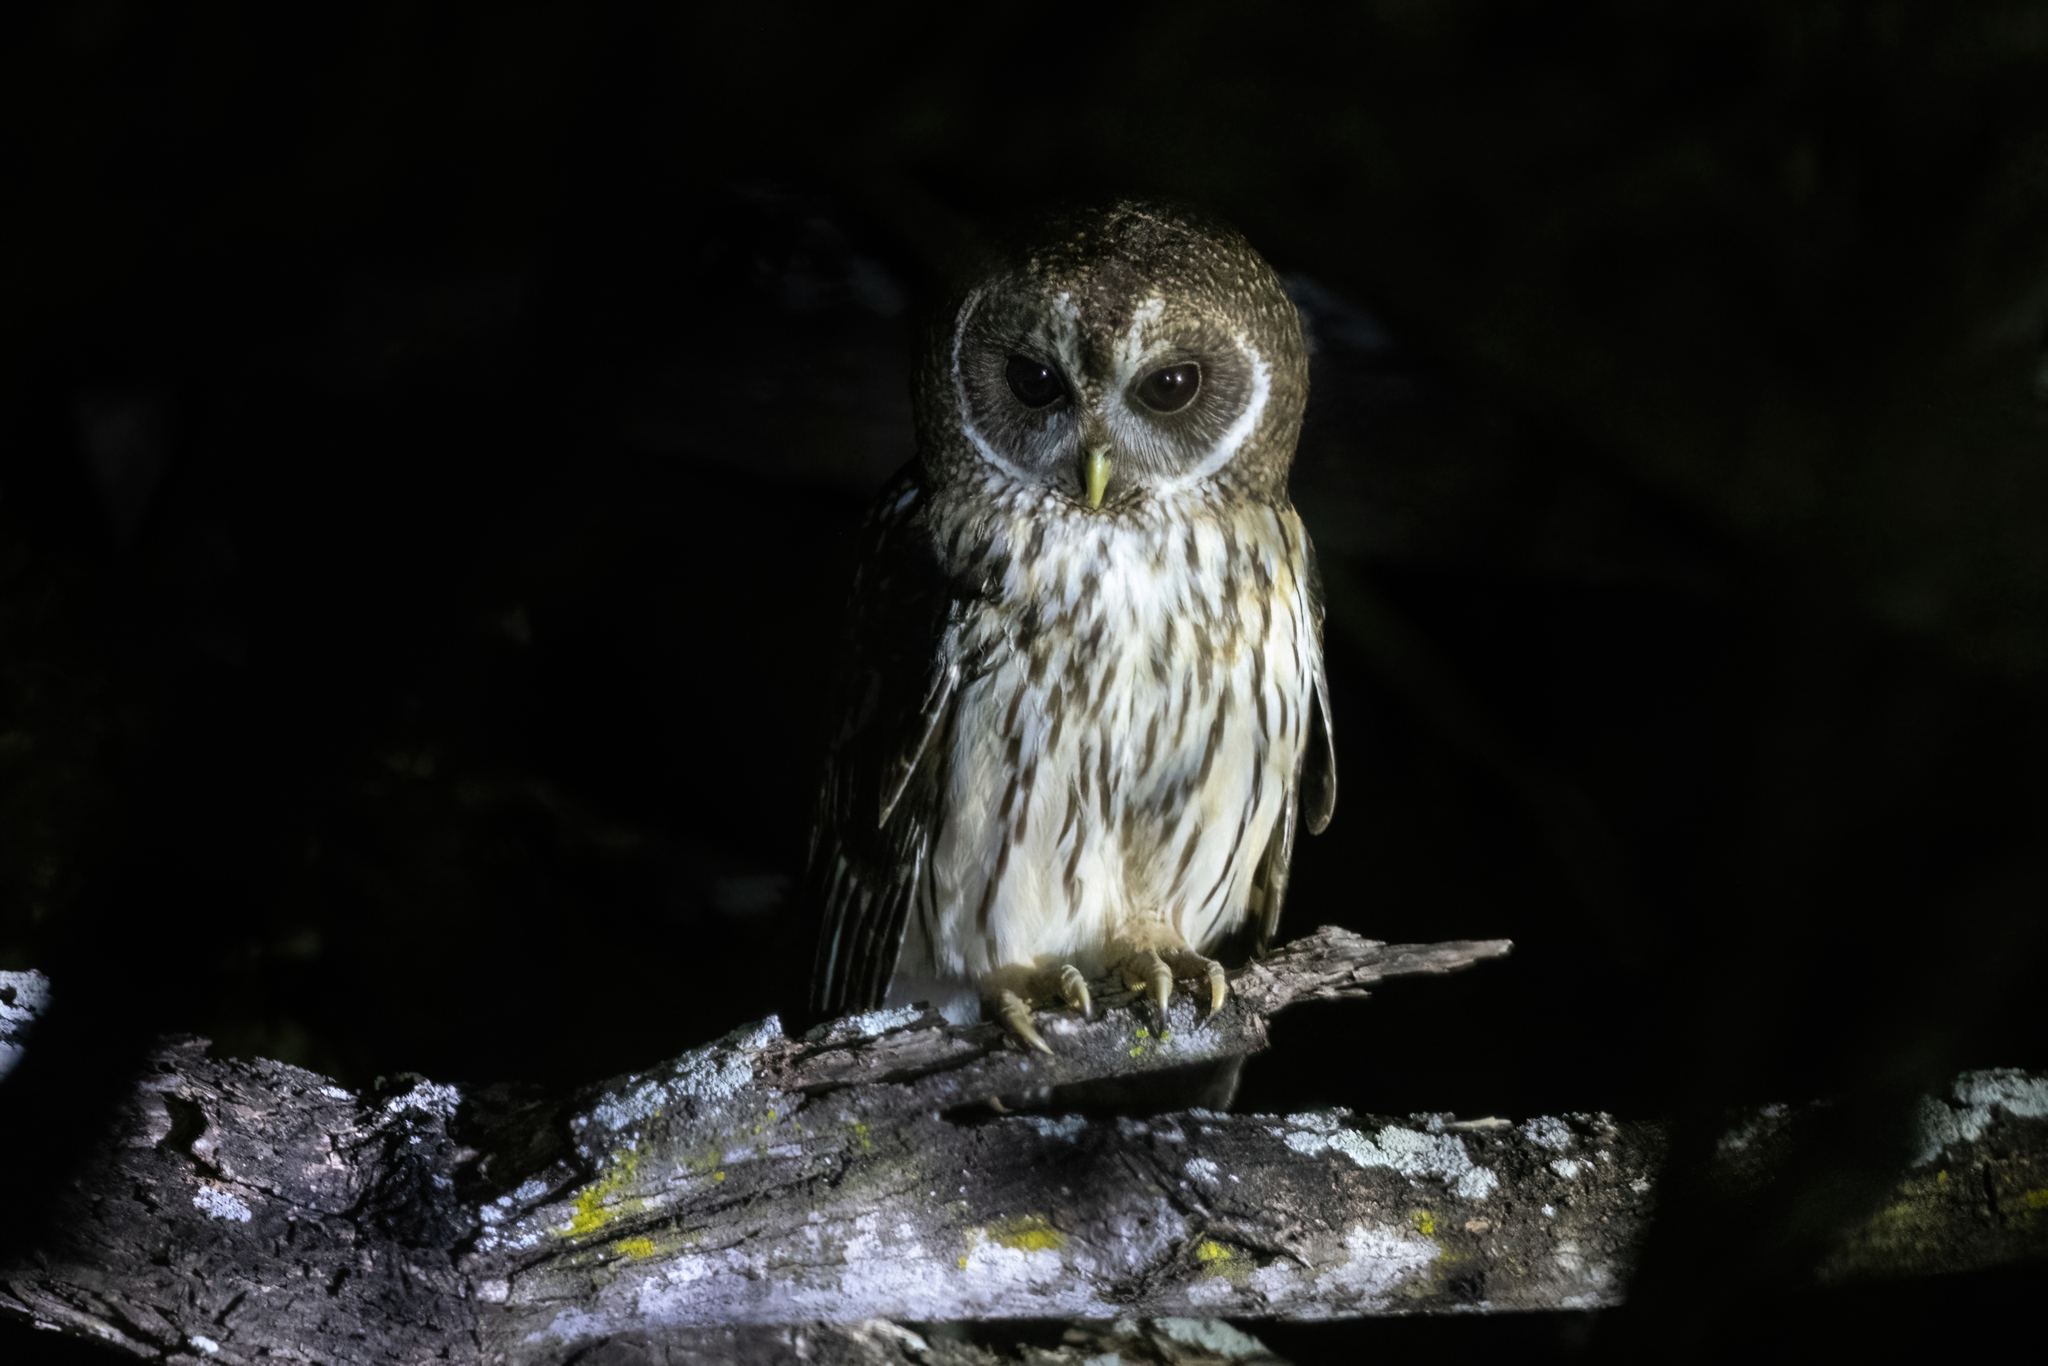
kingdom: Animalia
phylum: Chordata
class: Aves
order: Strigiformes
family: Strigidae
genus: Strix
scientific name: Strix virgata
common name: Mottled owl
